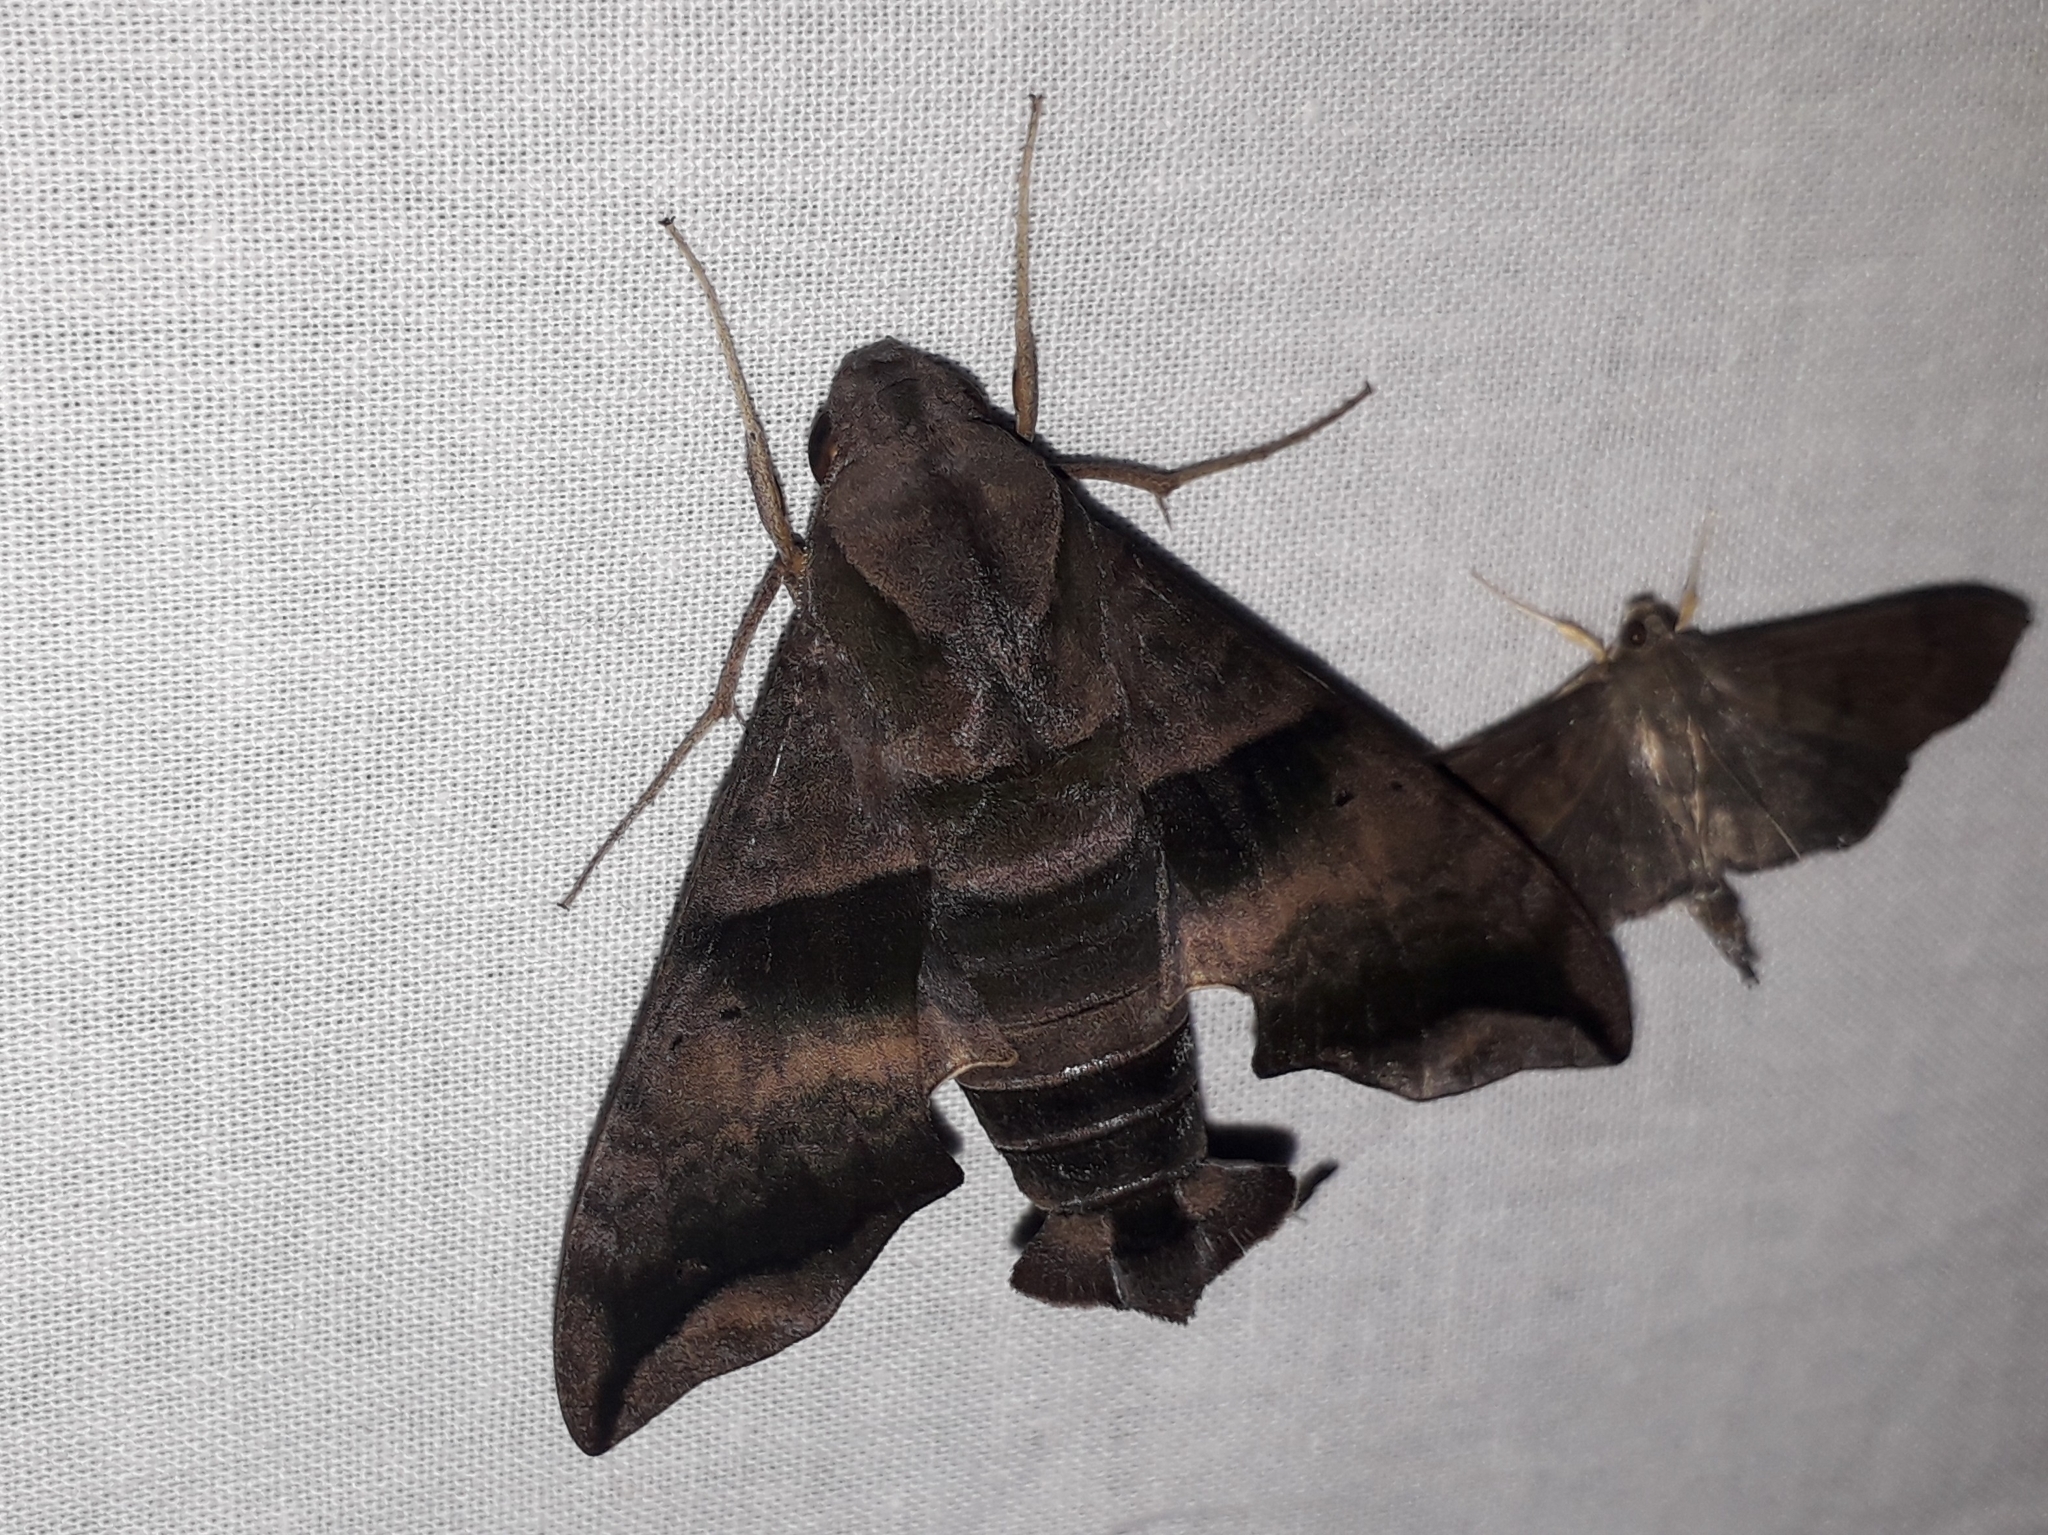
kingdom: Animalia
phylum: Arthropoda
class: Insecta
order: Lepidoptera
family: Sphingidae
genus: Perigonia
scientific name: Perigonia lusca
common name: Half-blind sphinx
